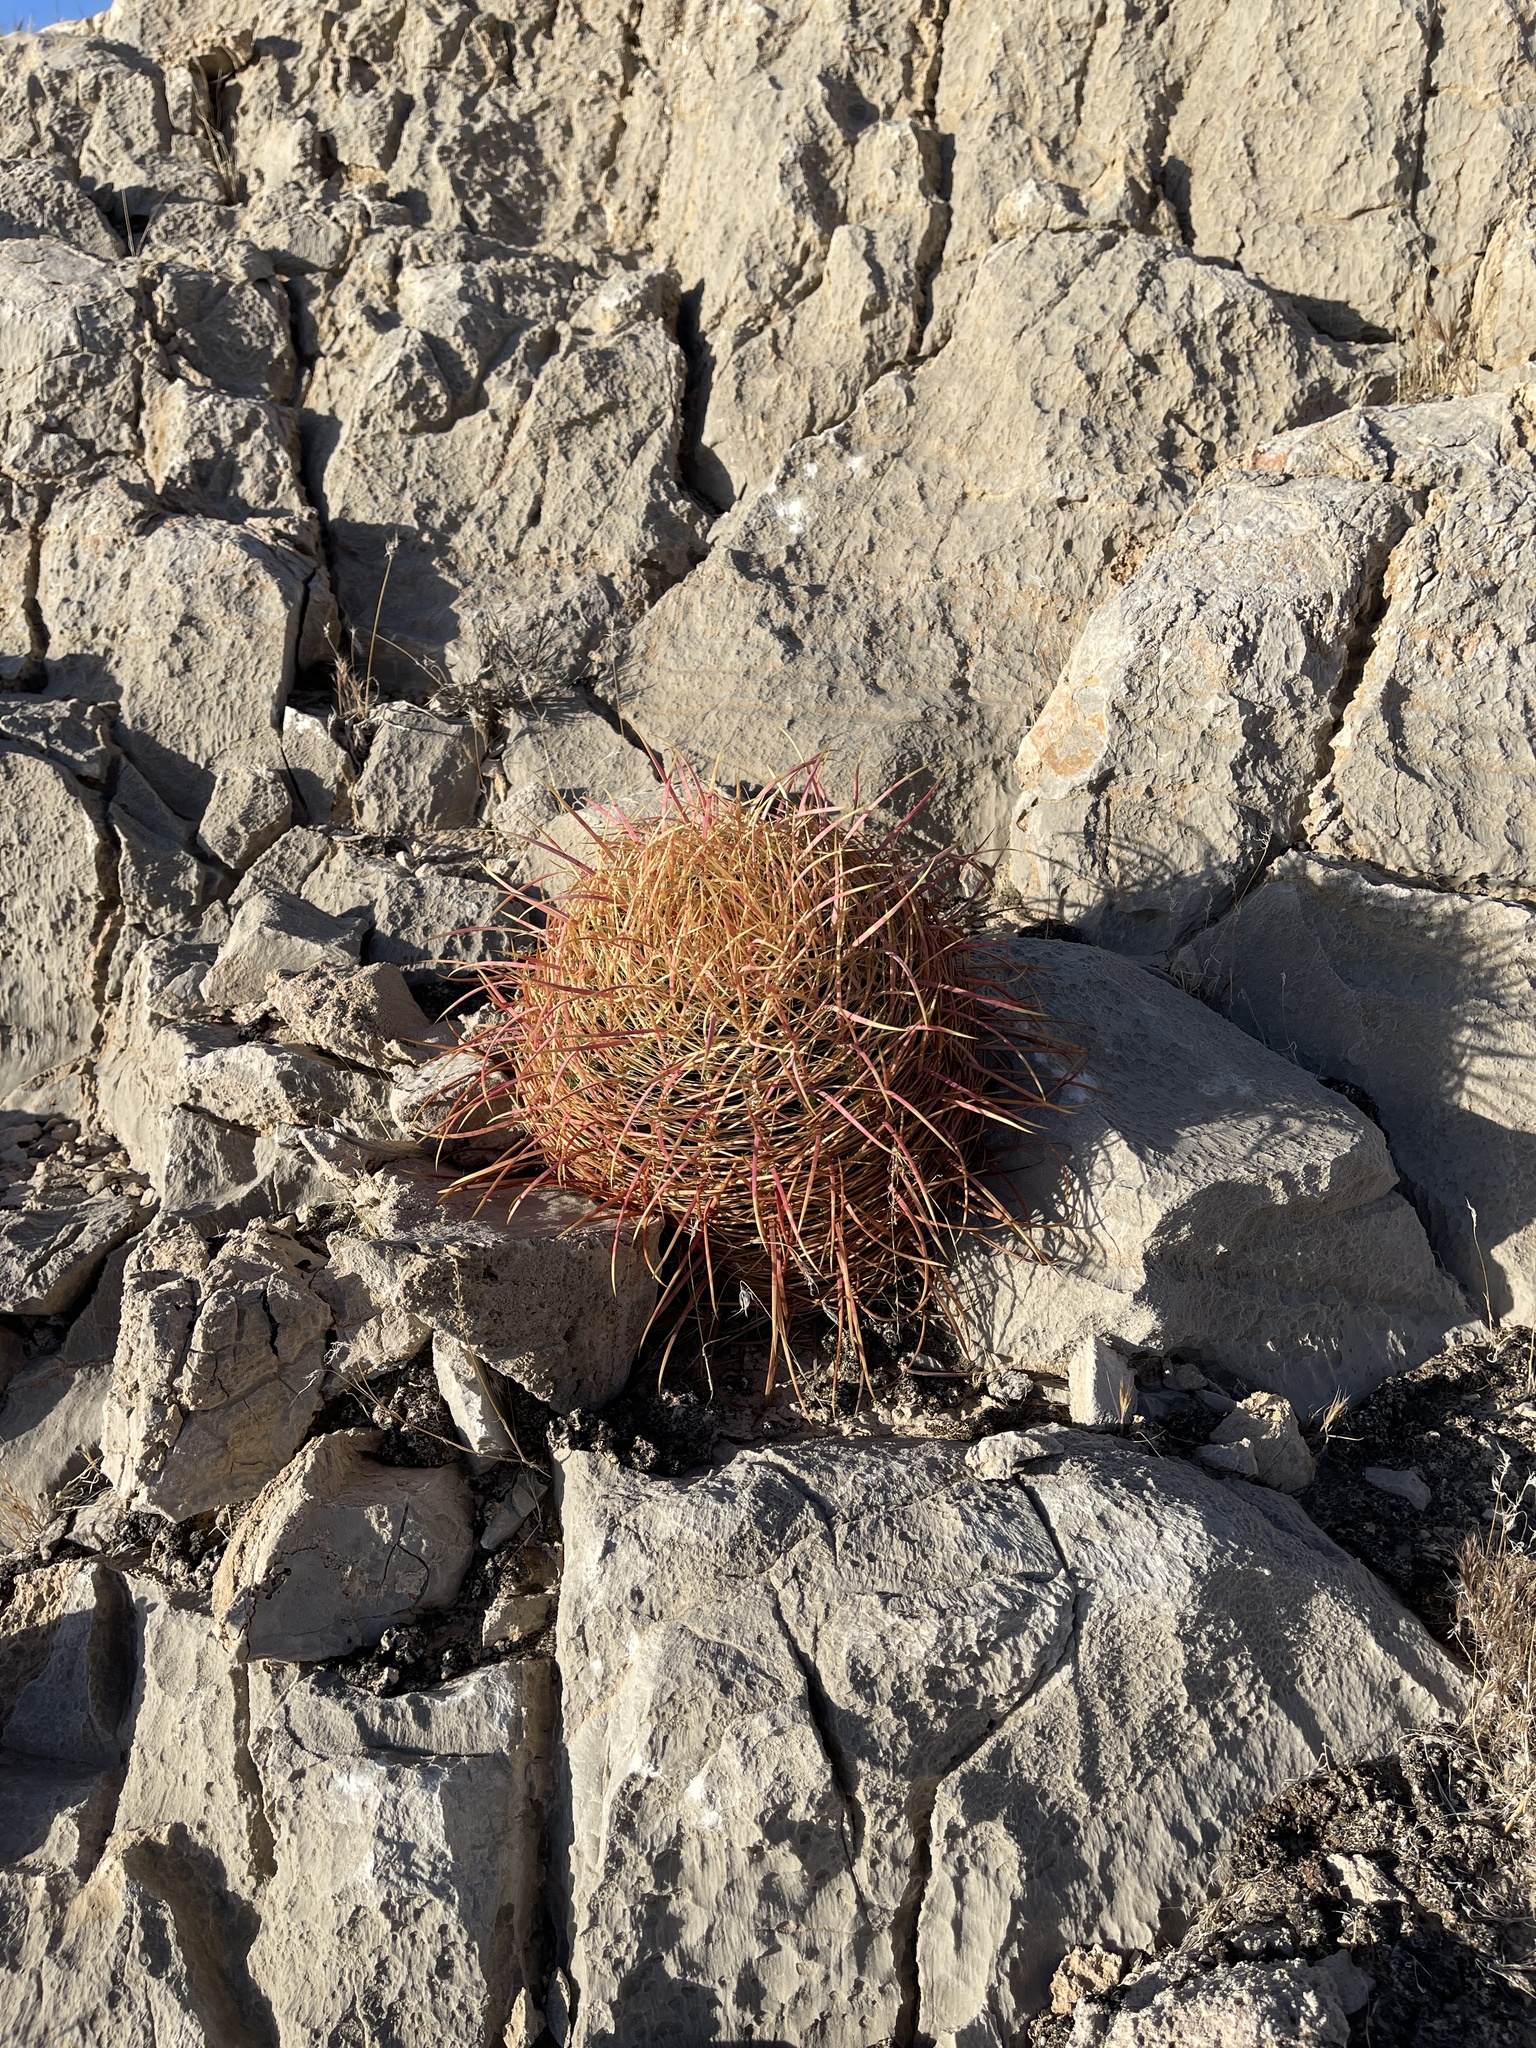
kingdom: Plantae
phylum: Tracheophyta
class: Magnoliopsida
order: Caryophyllales
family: Cactaceae
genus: Ferocactus
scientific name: Ferocactus cylindraceus
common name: California barrel cactus
